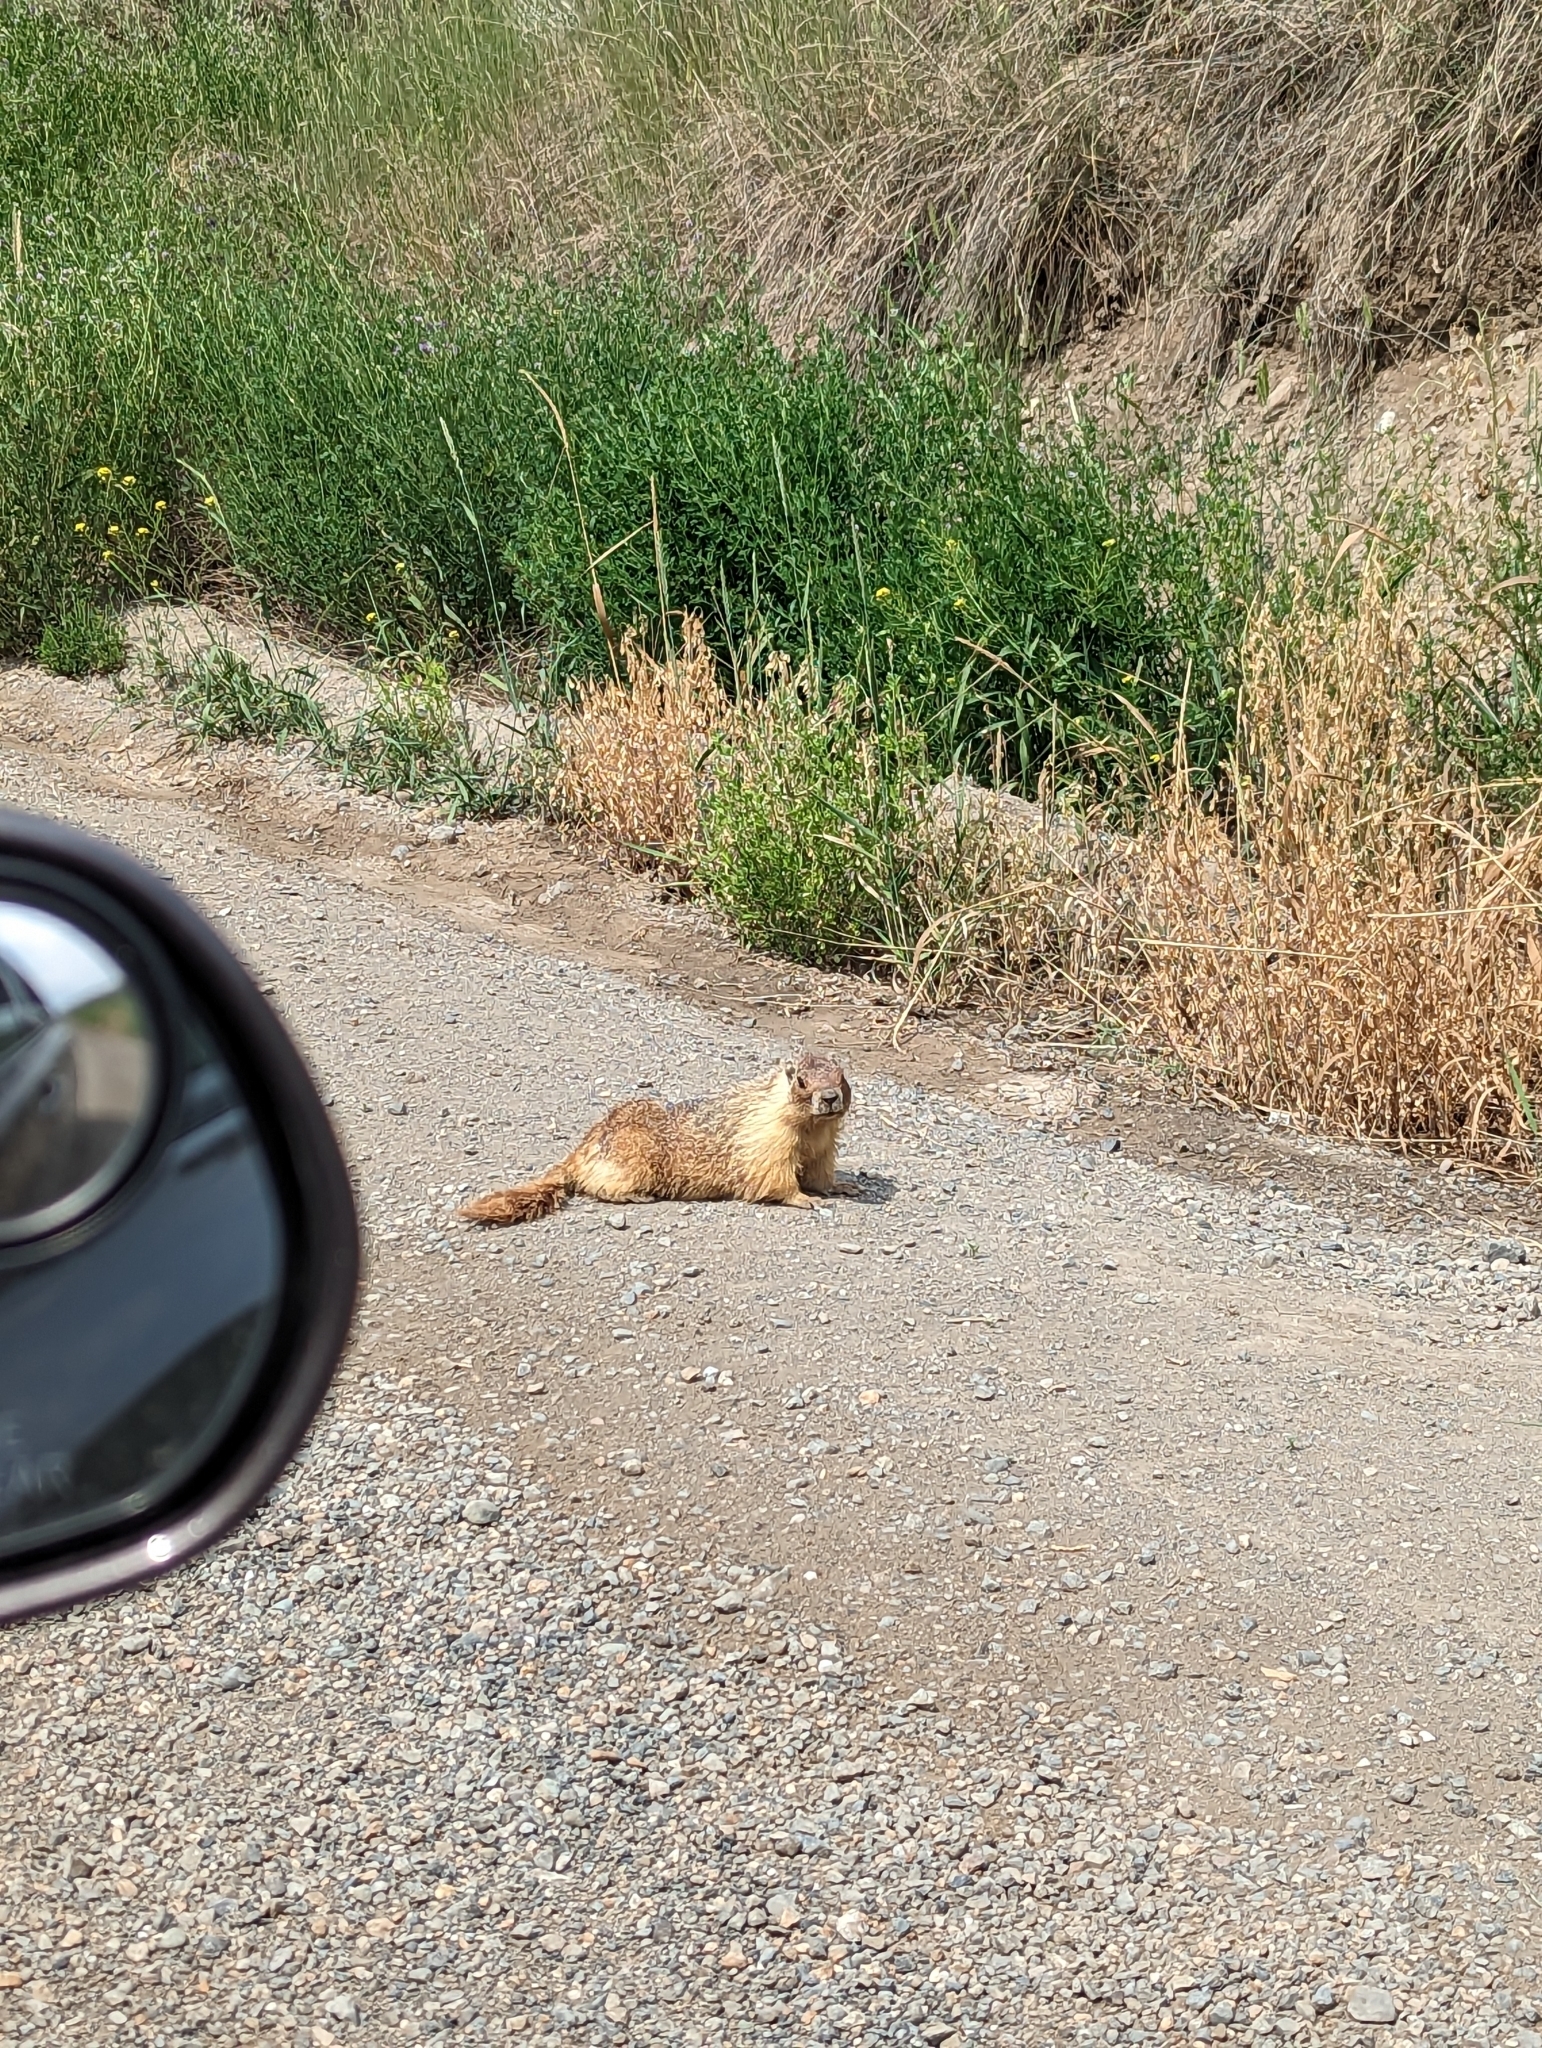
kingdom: Animalia
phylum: Chordata
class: Mammalia
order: Rodentia
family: Sciuridae
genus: Marmota
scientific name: Marmota flaviventris
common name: Yellow-bellied marmot
